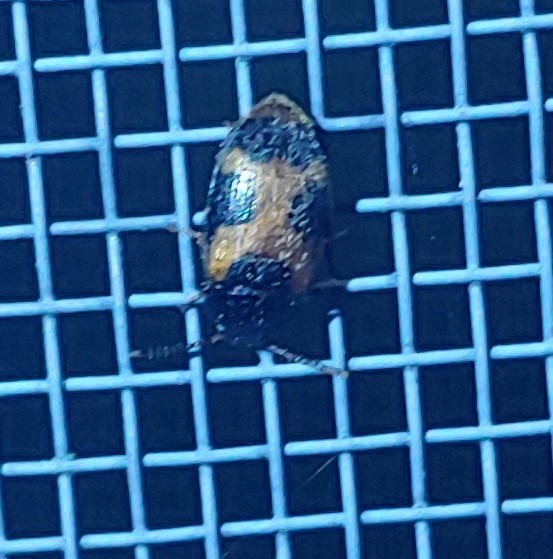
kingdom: Animalia
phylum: Arthropoda
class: Insecta
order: Coleoptera
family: Mycetophagidae
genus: Mycetophagus
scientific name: Mycetophagus punctatus
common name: Hairy fungus beetle
